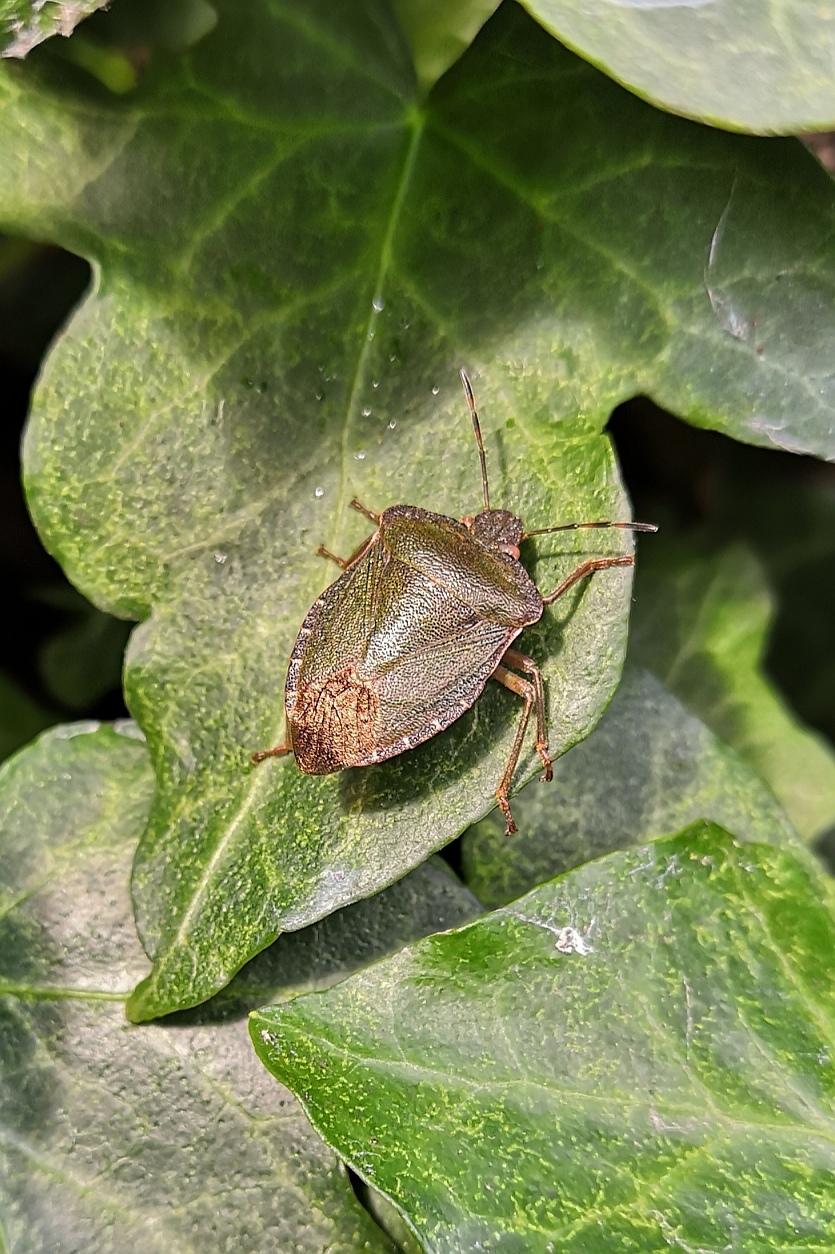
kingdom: Animalia
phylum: Arthropoda
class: Insecta
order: Hemiptera
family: Pentatomidae
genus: Palomena
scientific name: Palomena prasina
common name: Green shieldbug
